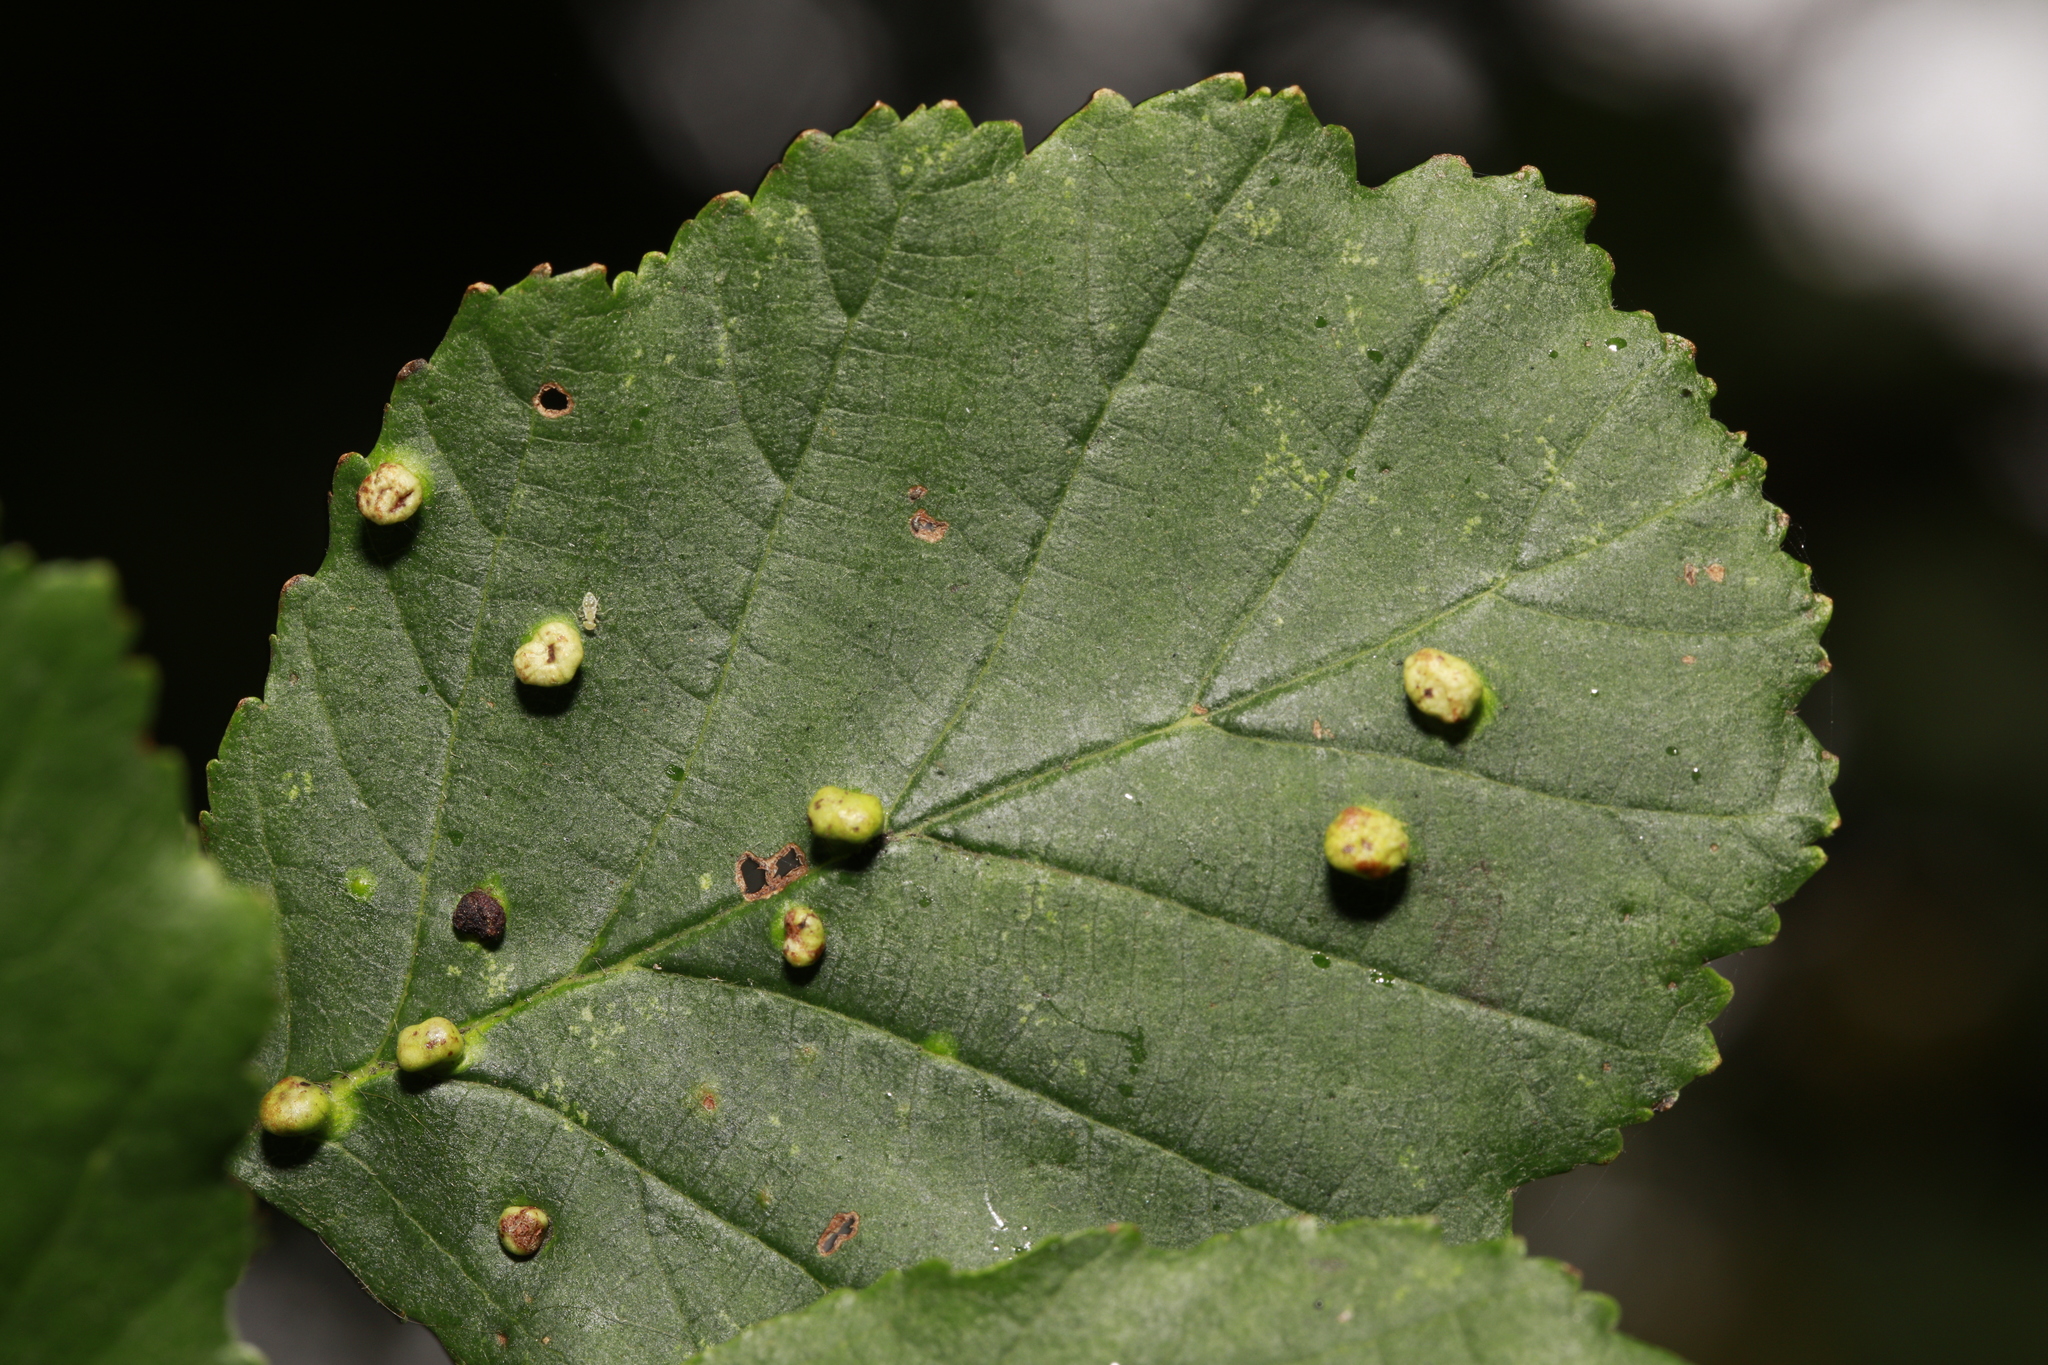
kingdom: Animalia
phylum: Arthropoda
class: Arachnida
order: Trombidiformes
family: Eriophyidae
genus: Eriophyes
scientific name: Eriophyes laevis
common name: Alder leaf gall mite
